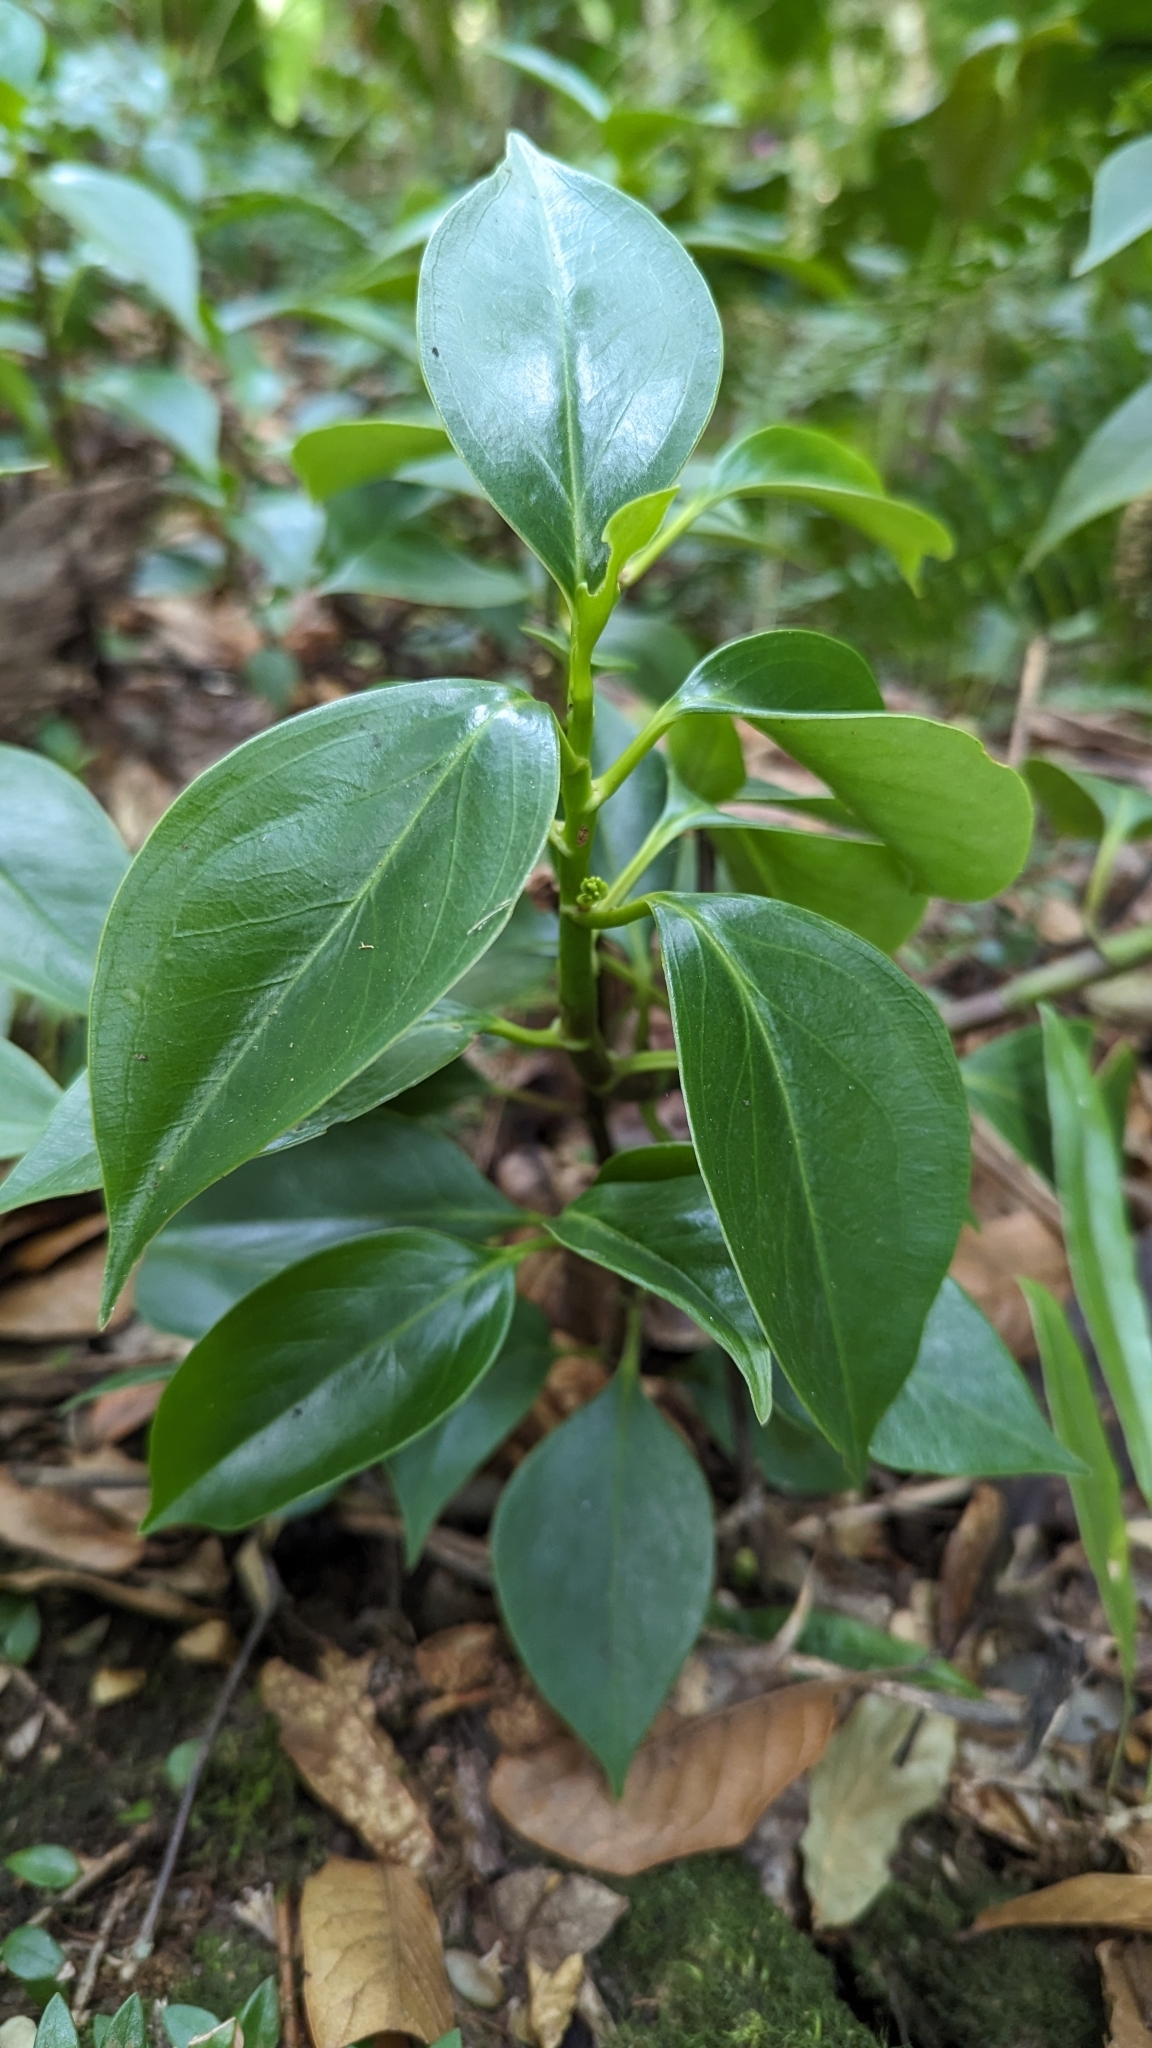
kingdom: Plantae
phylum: Tracheophyta
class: Magnoliopsida
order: Piperales
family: Piperaceae
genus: Peperomia
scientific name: Peperomia dotana
